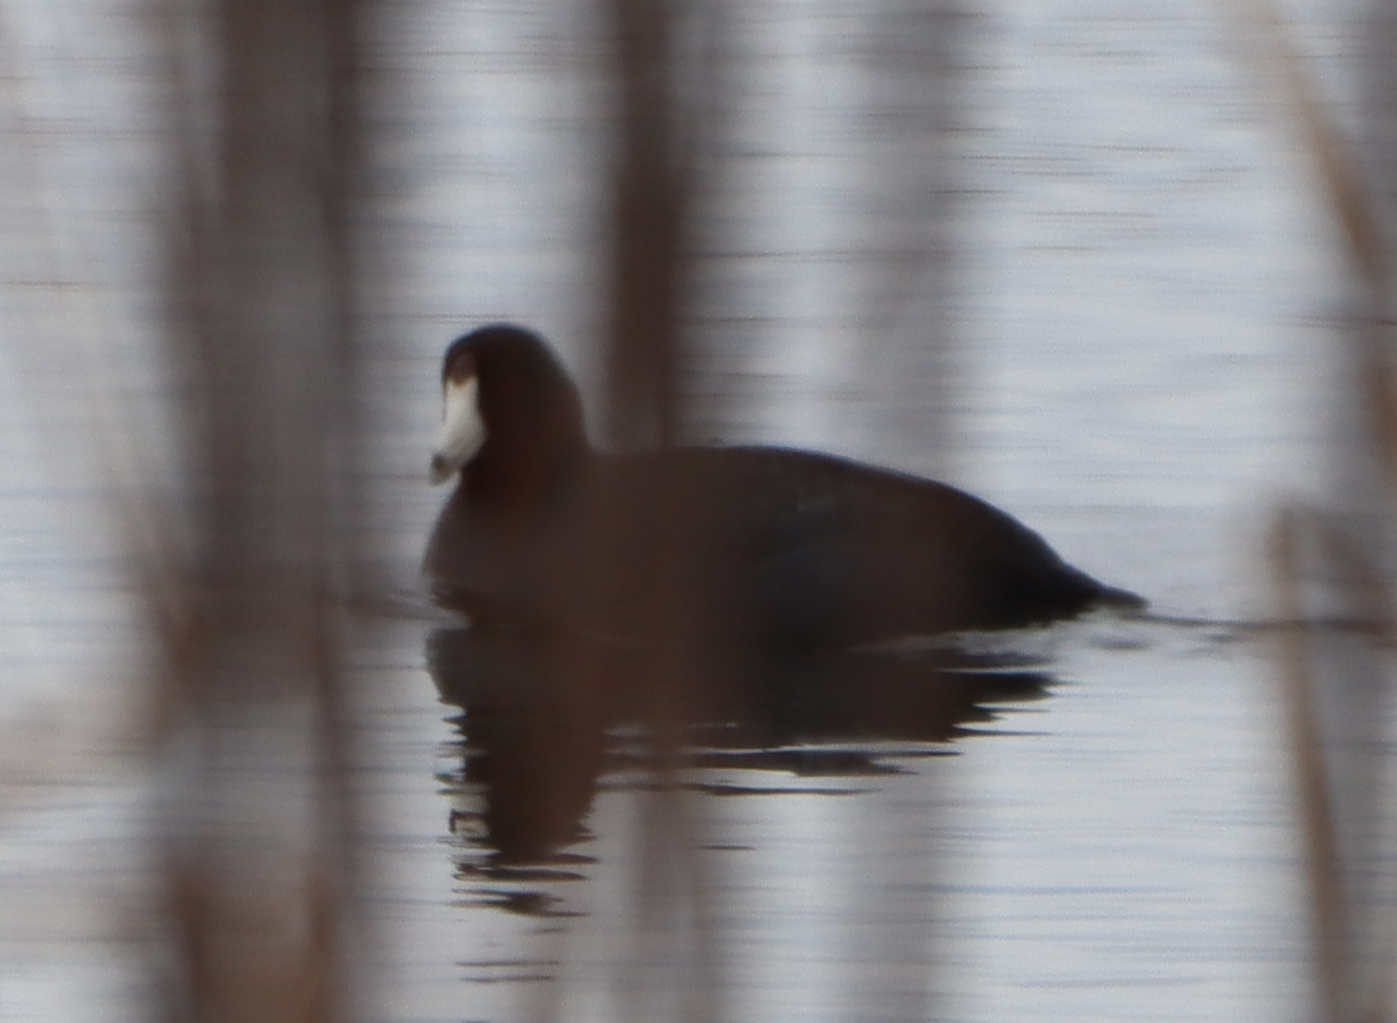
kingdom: Animalia
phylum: Chordata
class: Aves
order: Gruiformes
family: Rallidae
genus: Fulica
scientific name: Fulica americana
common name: American coot
